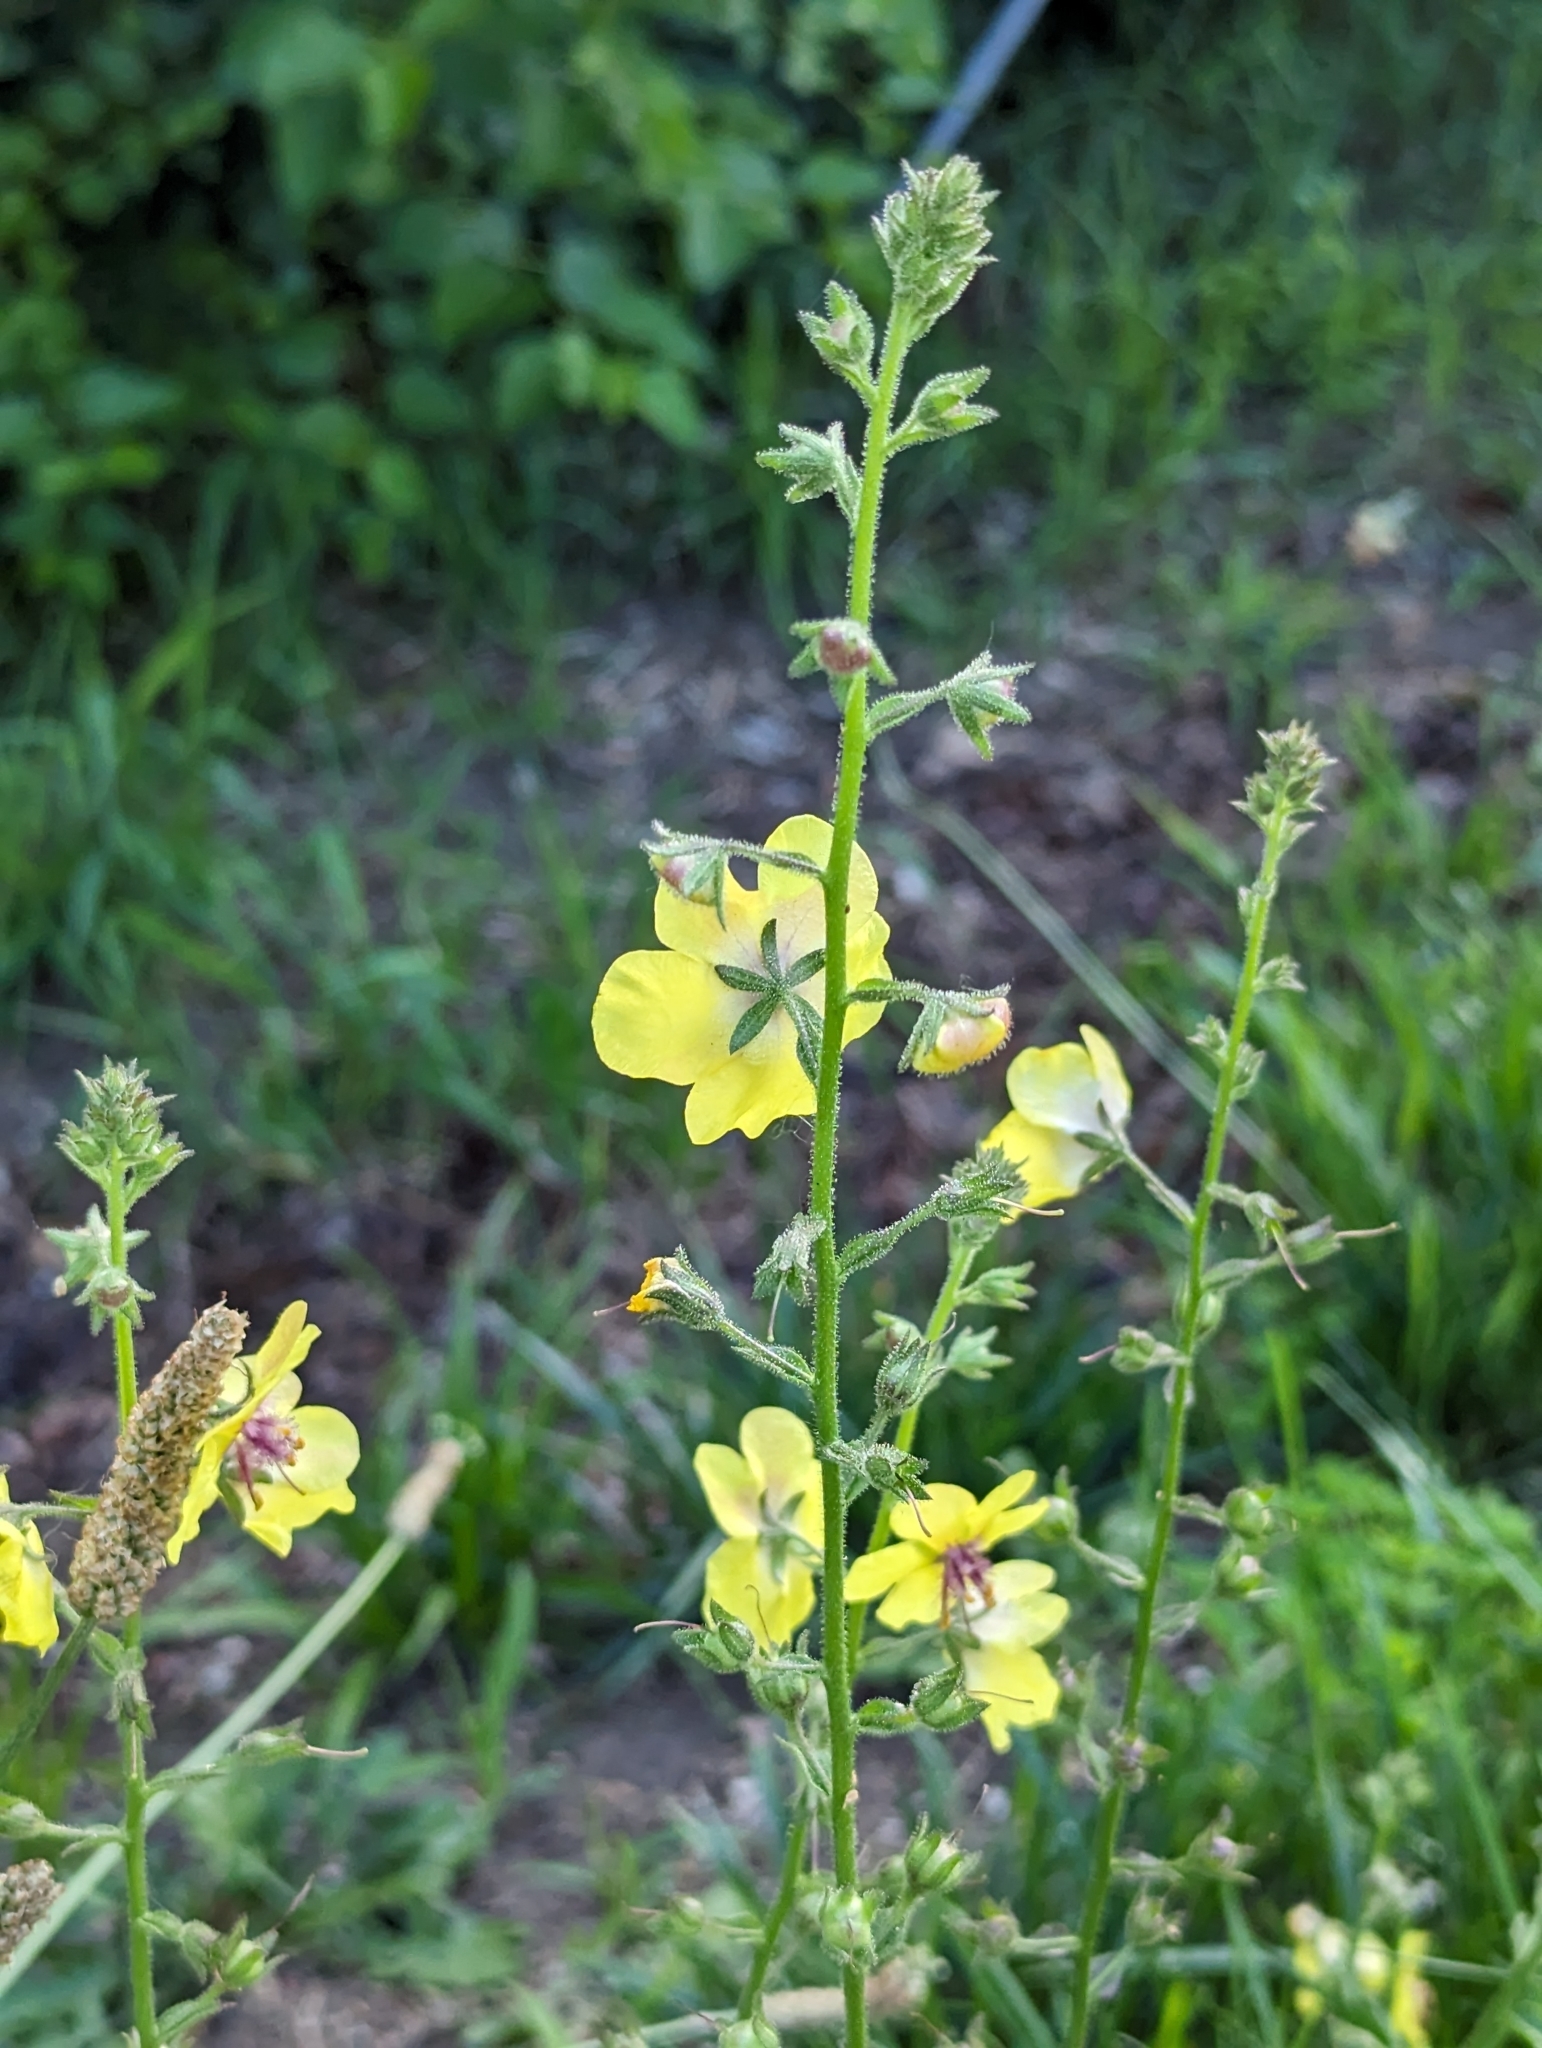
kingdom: Plantae
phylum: Tracheophyta
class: Magnoliopsida
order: Lamiales
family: Scrophulariaceae
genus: Verbascum
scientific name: Verbascum blattaria
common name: Moth mullein
